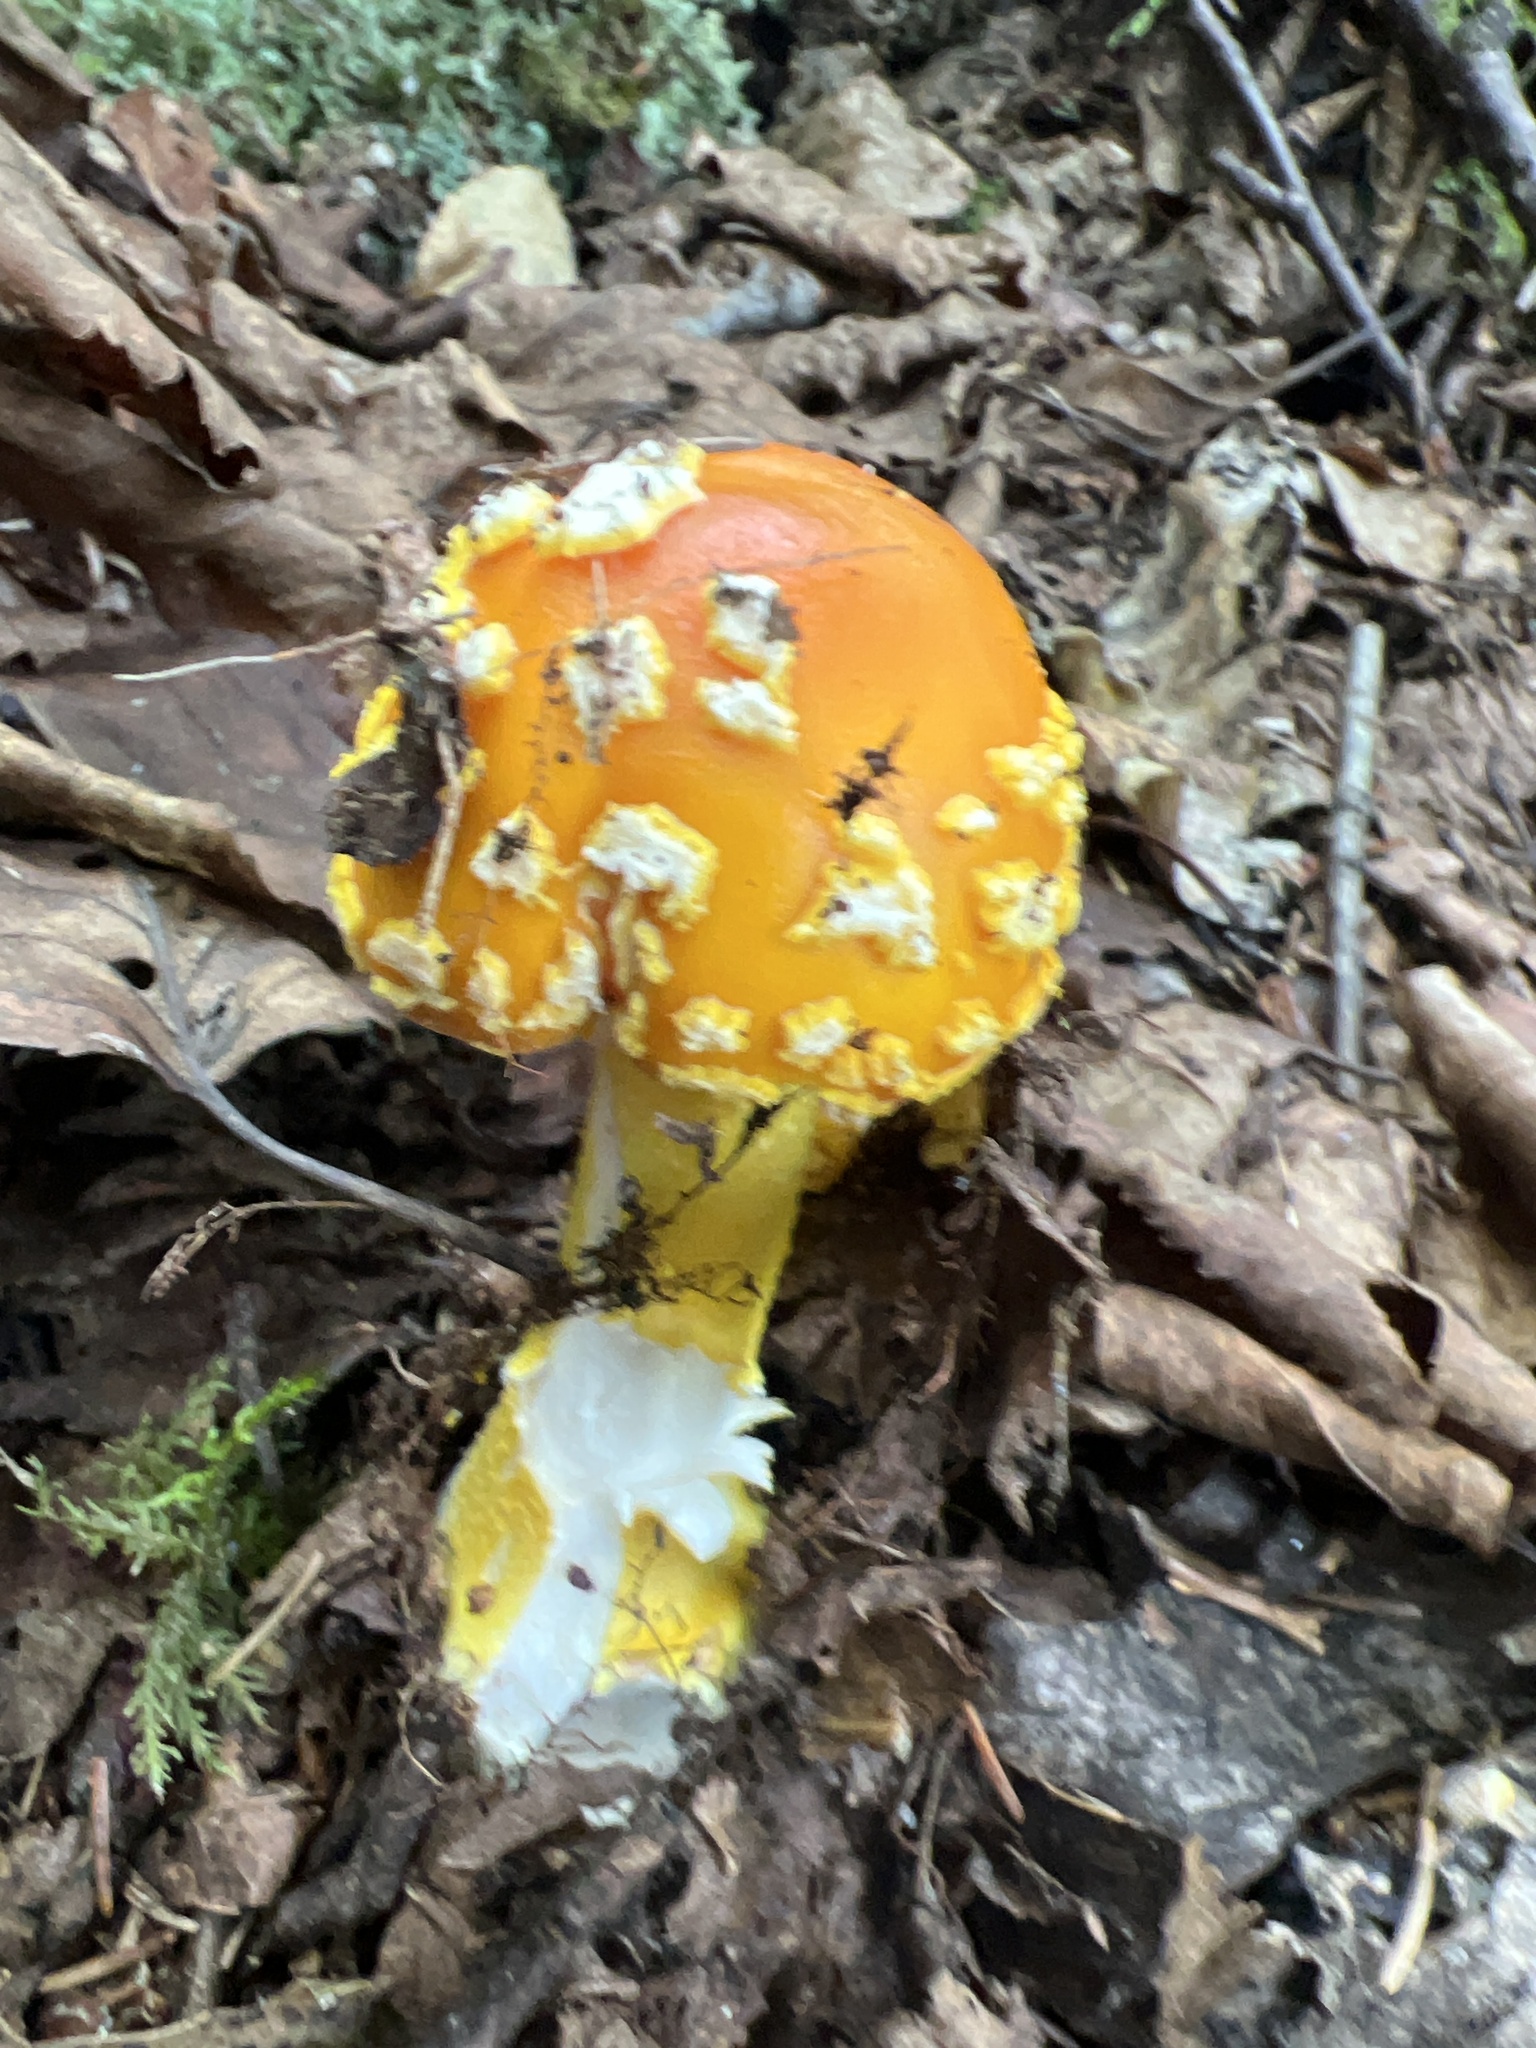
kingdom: Fungi
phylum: Basidiomycota
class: Agaricomycetes
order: Agaricales
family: Amanitaceae
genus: Amanita
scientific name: Amanita flavoconia
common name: Yellow patches
